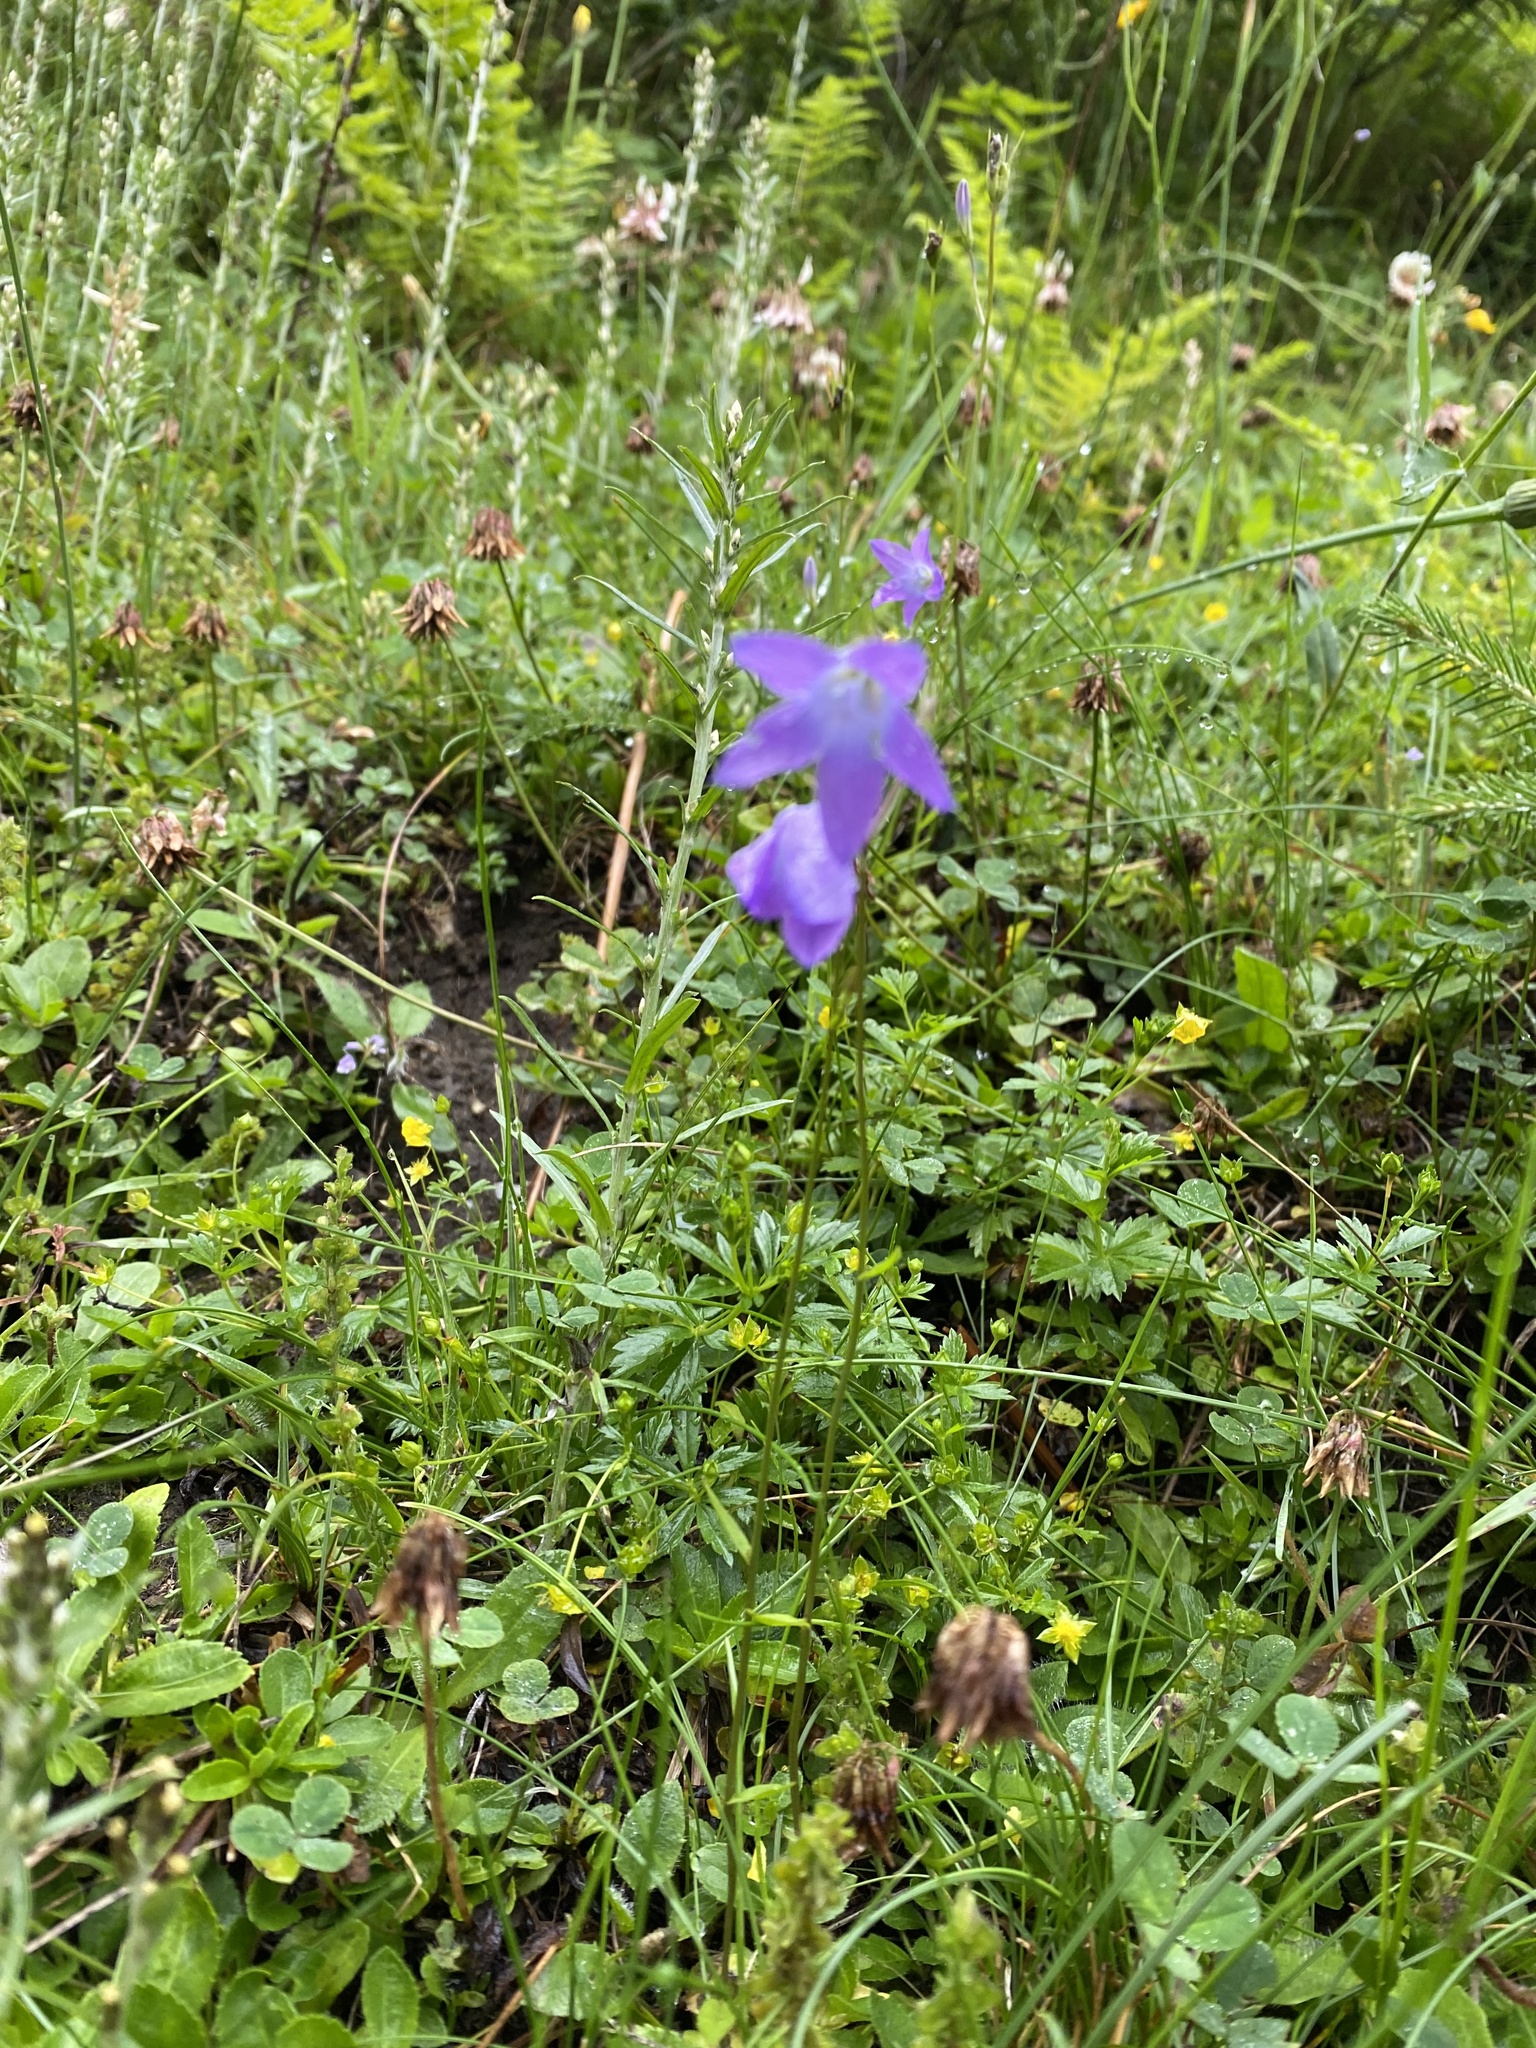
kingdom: Plantae
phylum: Tracheophyta
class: Magnoliopsida
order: Asterales
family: Campanulaceae
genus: Campanula
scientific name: Campanula patula
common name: Spreading bellflower
